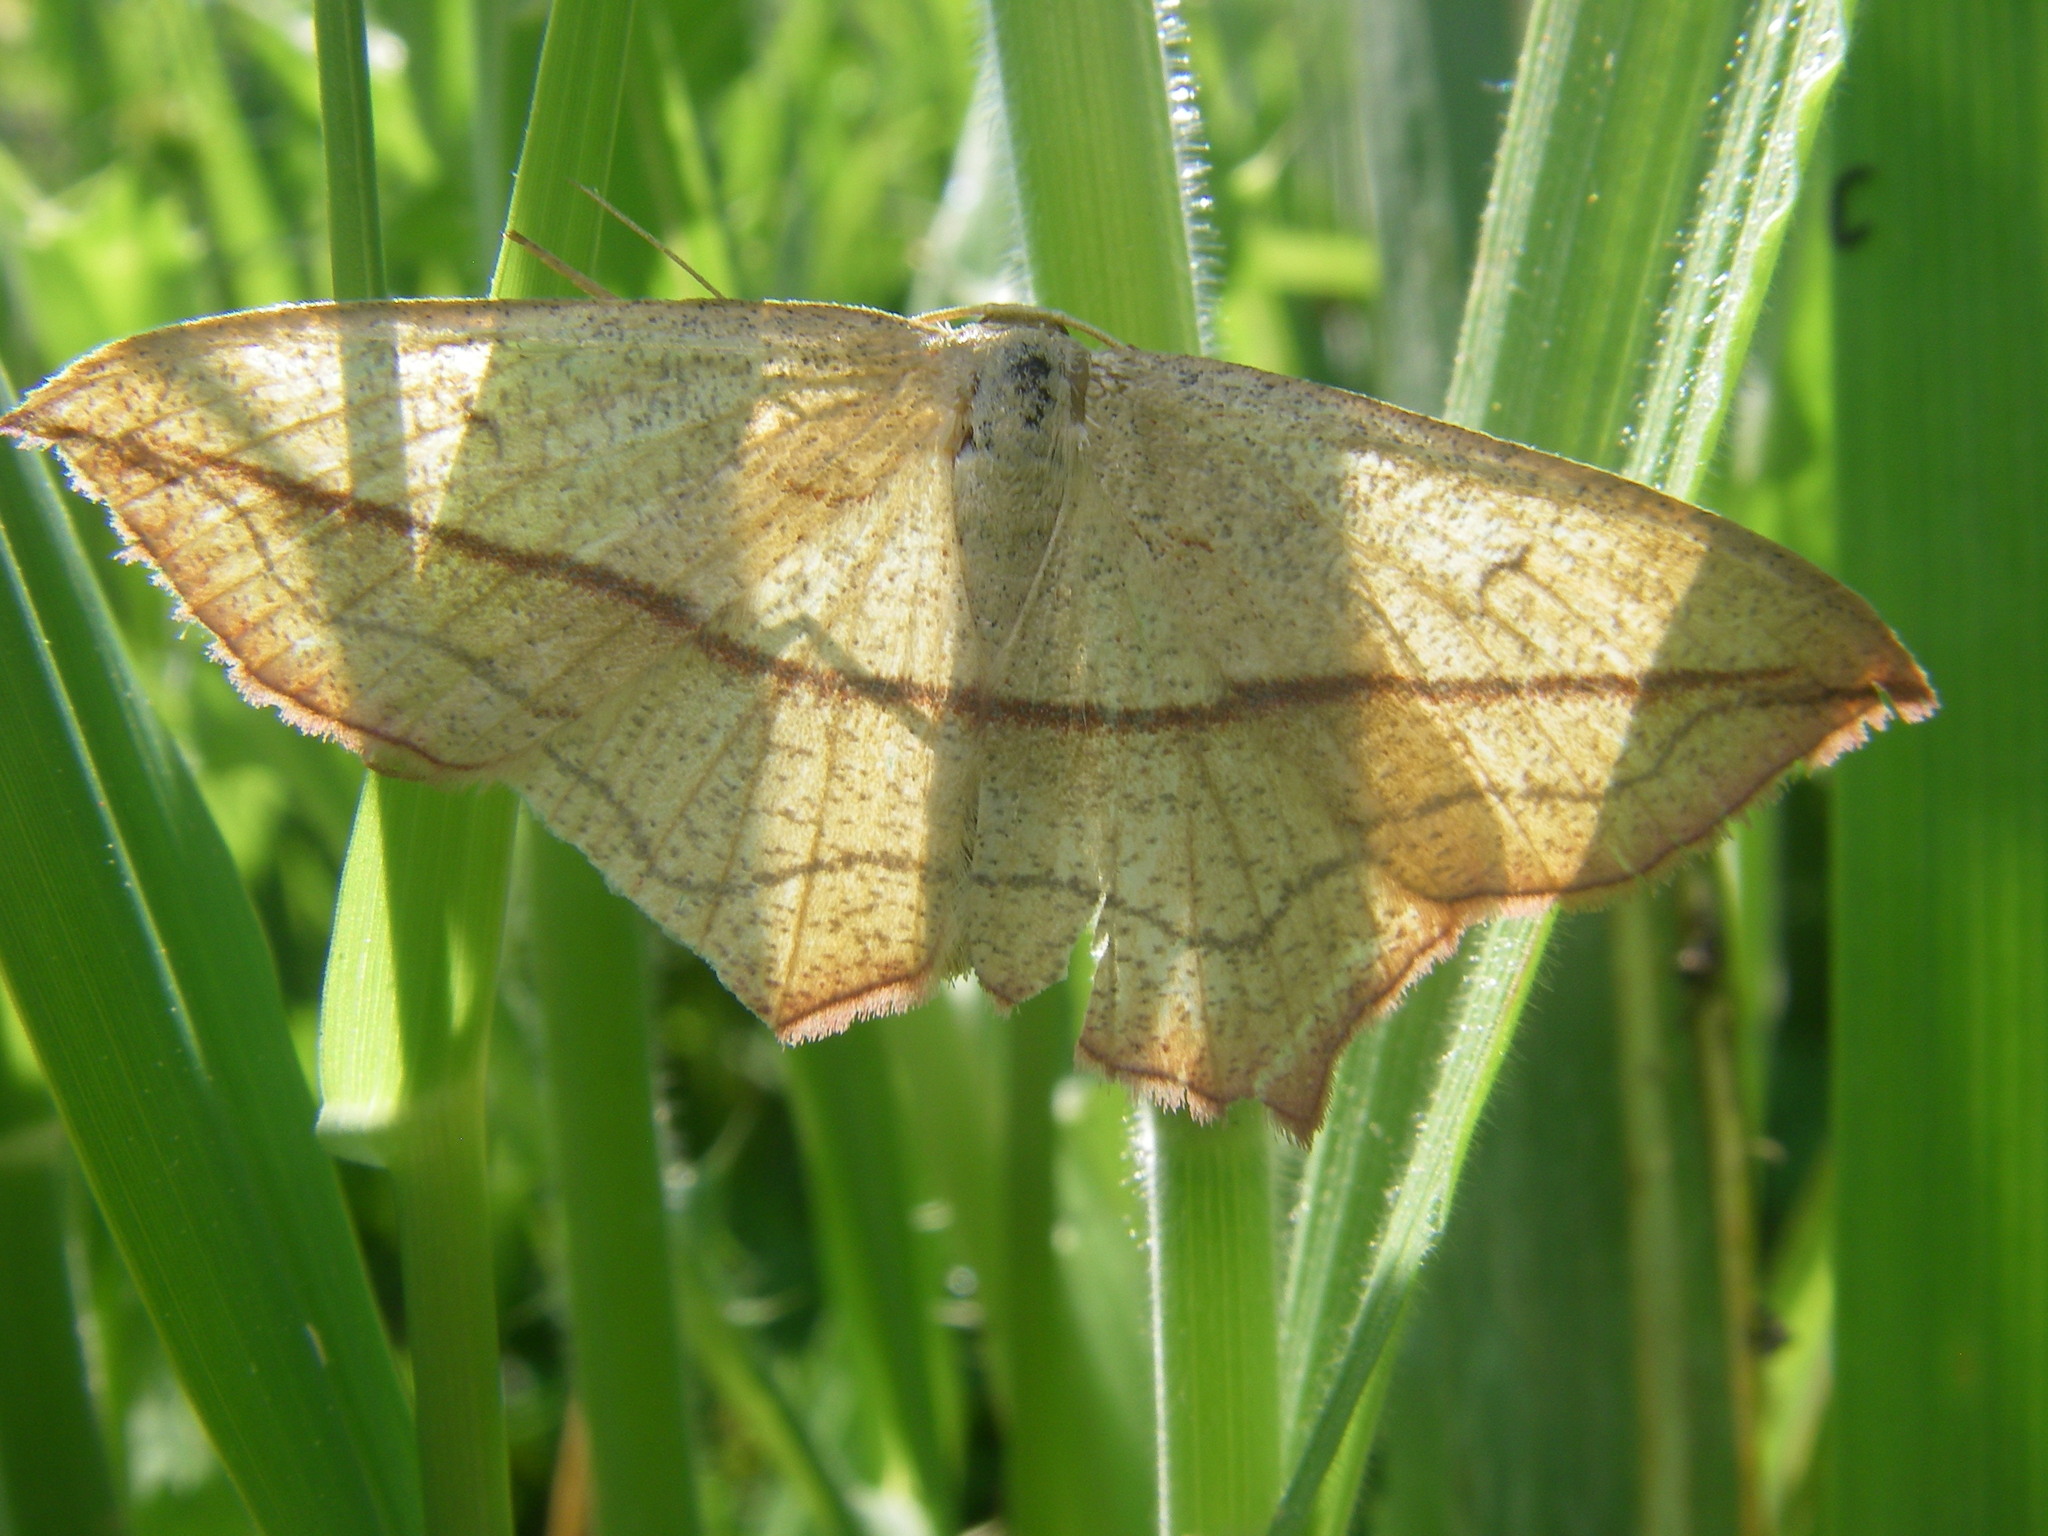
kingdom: Animalia
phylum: Arthropoda
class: Insecta
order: Lepidoptera
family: Geometridae
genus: Timandra
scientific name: Timandra comae
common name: Blood-vein
